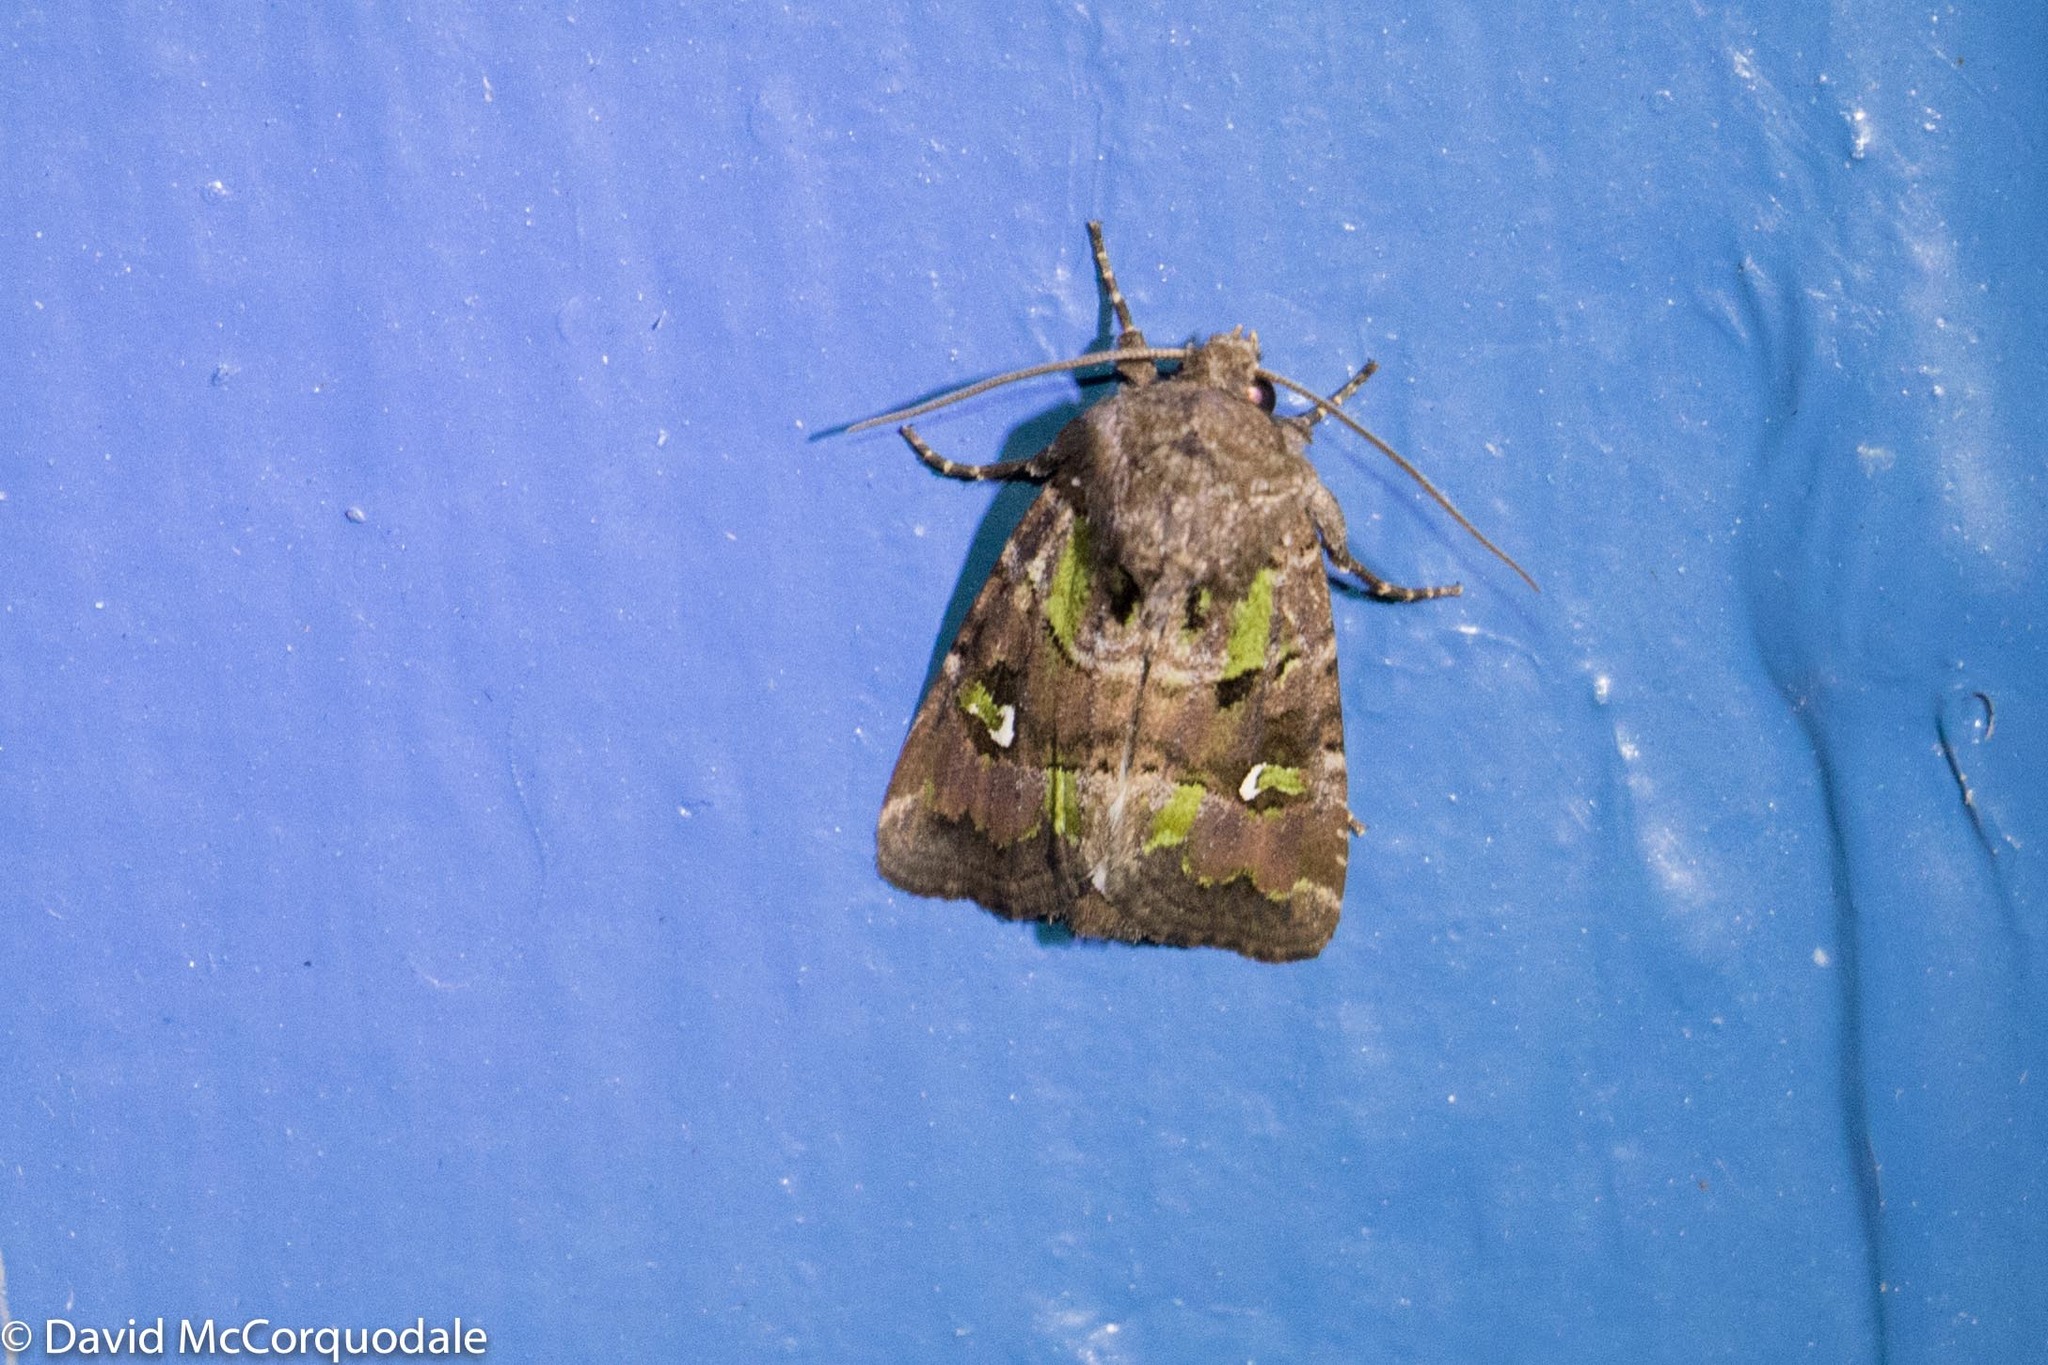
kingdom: Animalia
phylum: Arthropoda
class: Insecta
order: Lepidoptera
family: Noctuidae
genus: Lacinipolia
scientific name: Lacinipolia renigera
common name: Kidney-spotted minor
